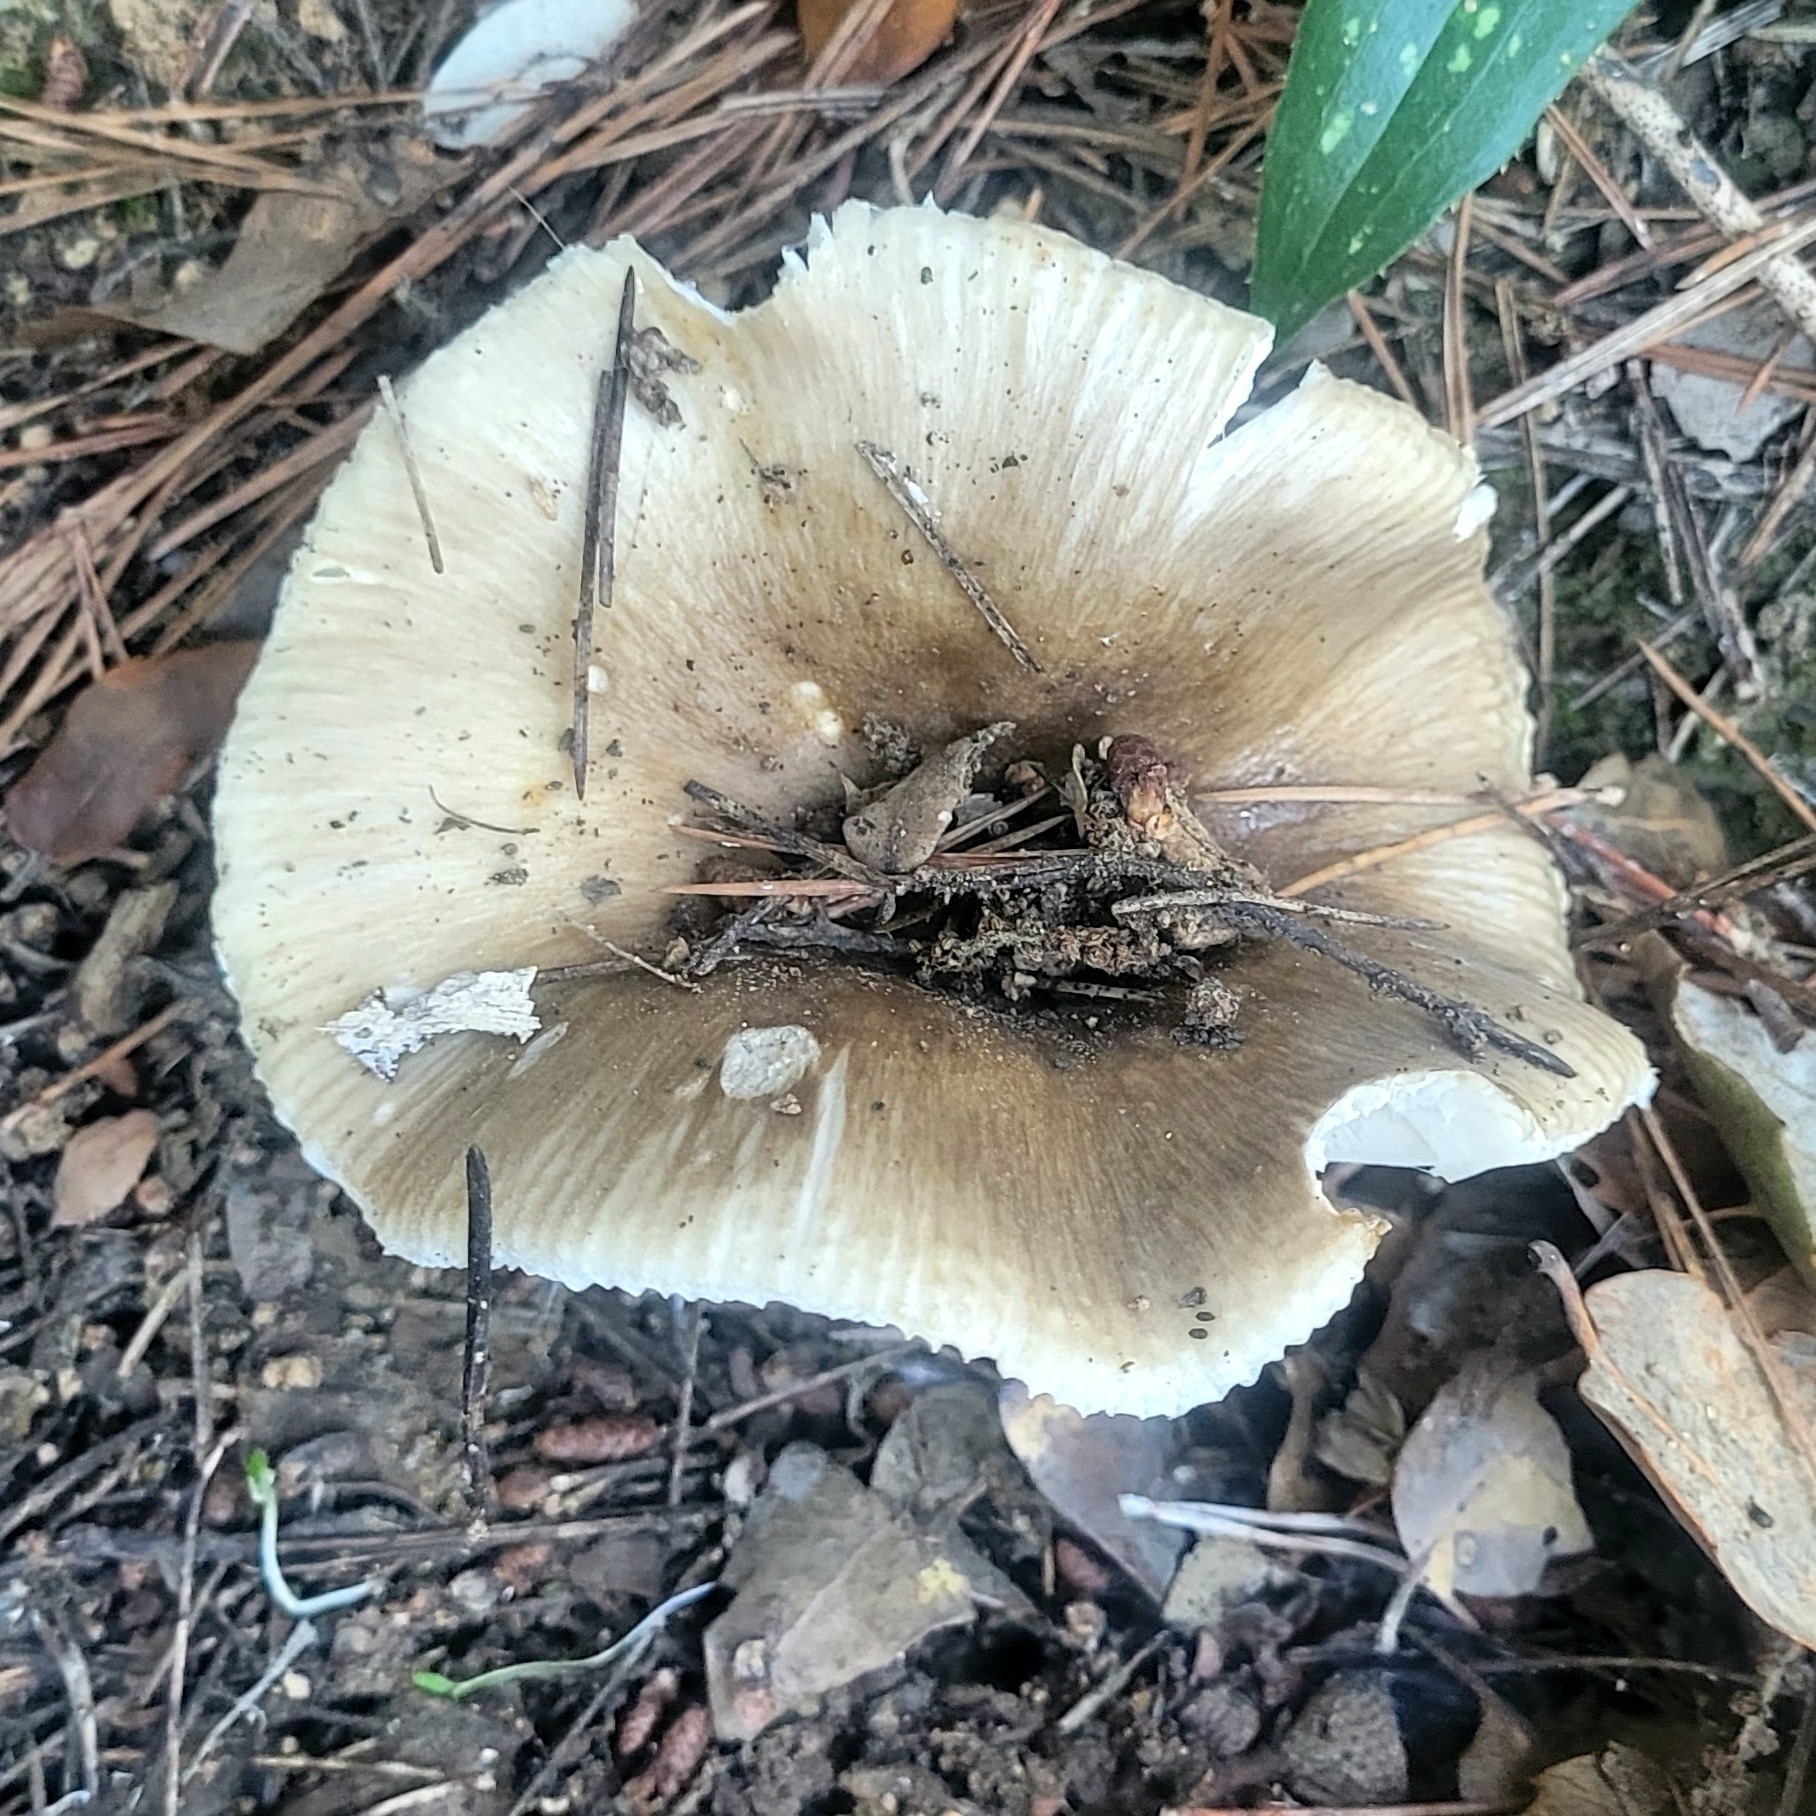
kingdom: Fungi
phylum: Basidiomycota
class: Agaricomycetes
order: Russulales
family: Russulaceae
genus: Russula
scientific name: Russula fragilis
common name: Fragile brittlegill
